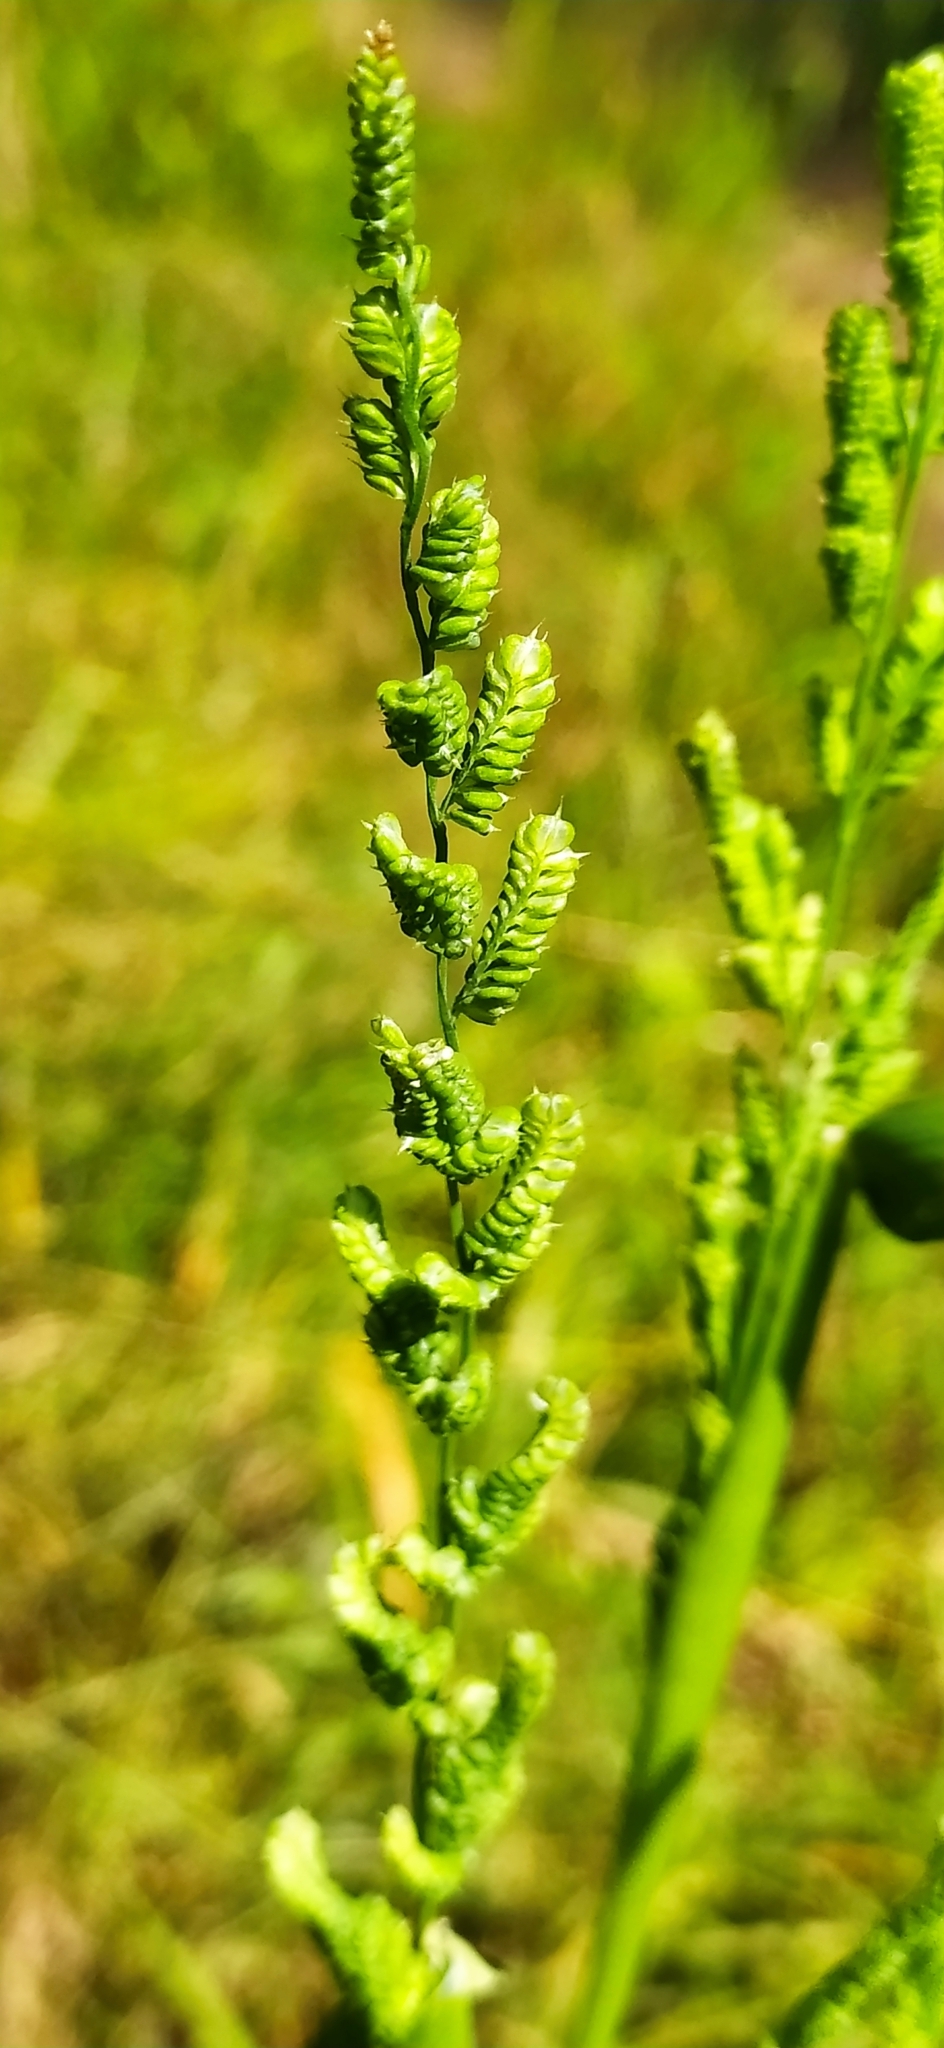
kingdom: Plantae
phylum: Tracheophyta
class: Liliopsida
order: Poales
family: Poaceae
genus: Beckmannia
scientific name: Beckmannia syzigachne
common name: American slough-grass
